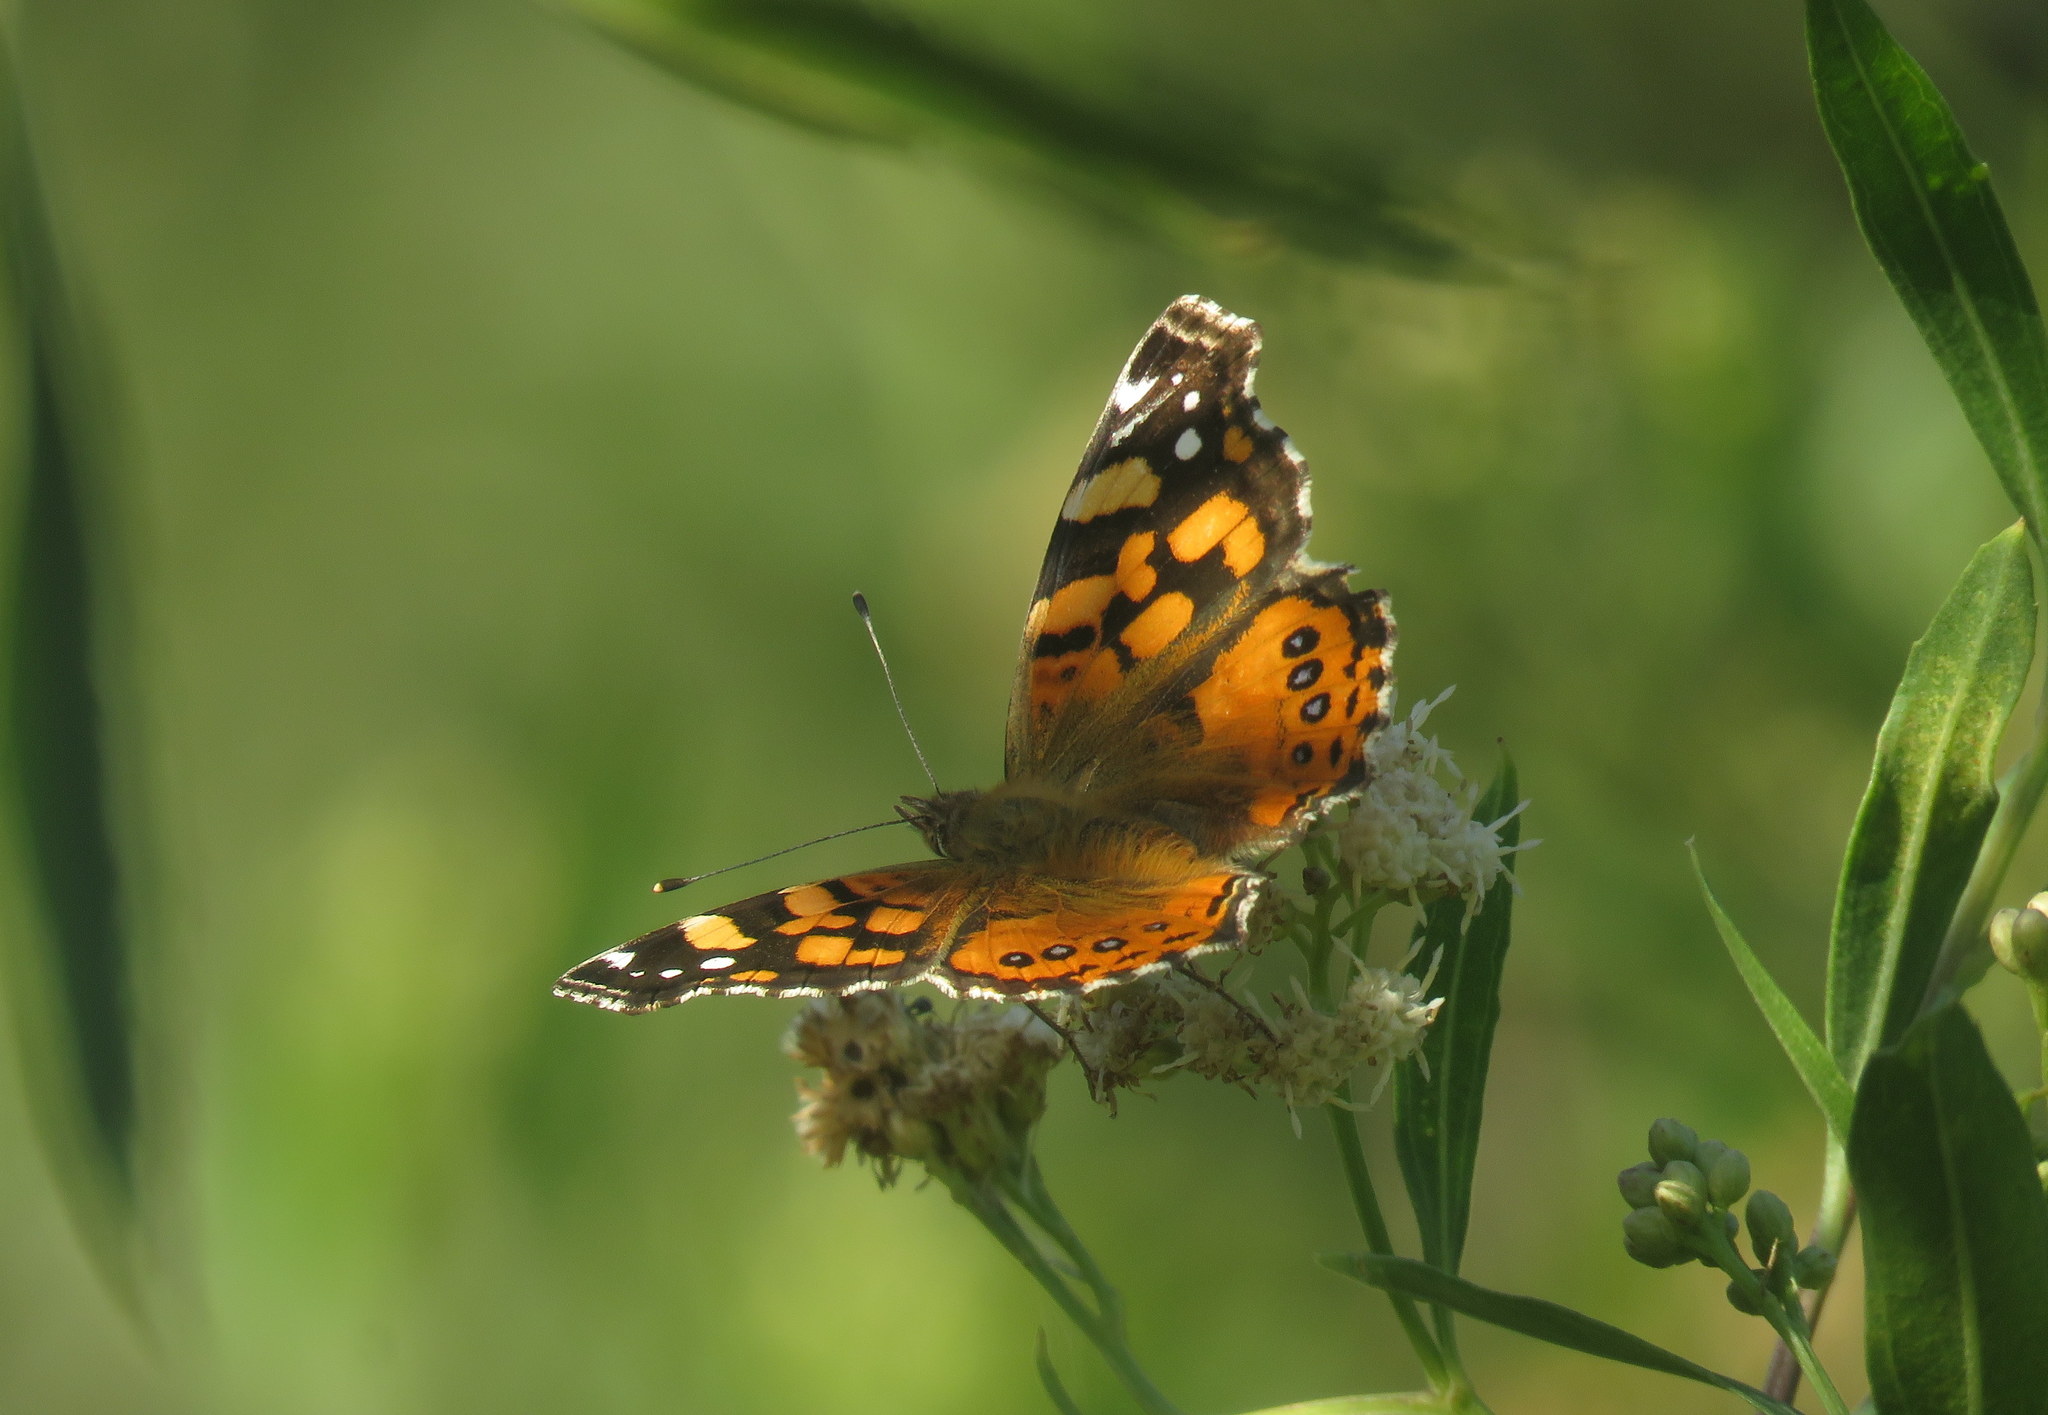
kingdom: Animalia
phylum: Arthropoda
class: Insecta
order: Lepidoptera
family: Nymphalidae
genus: Vanessa
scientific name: Vanessa carye
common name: Subtropical lady
